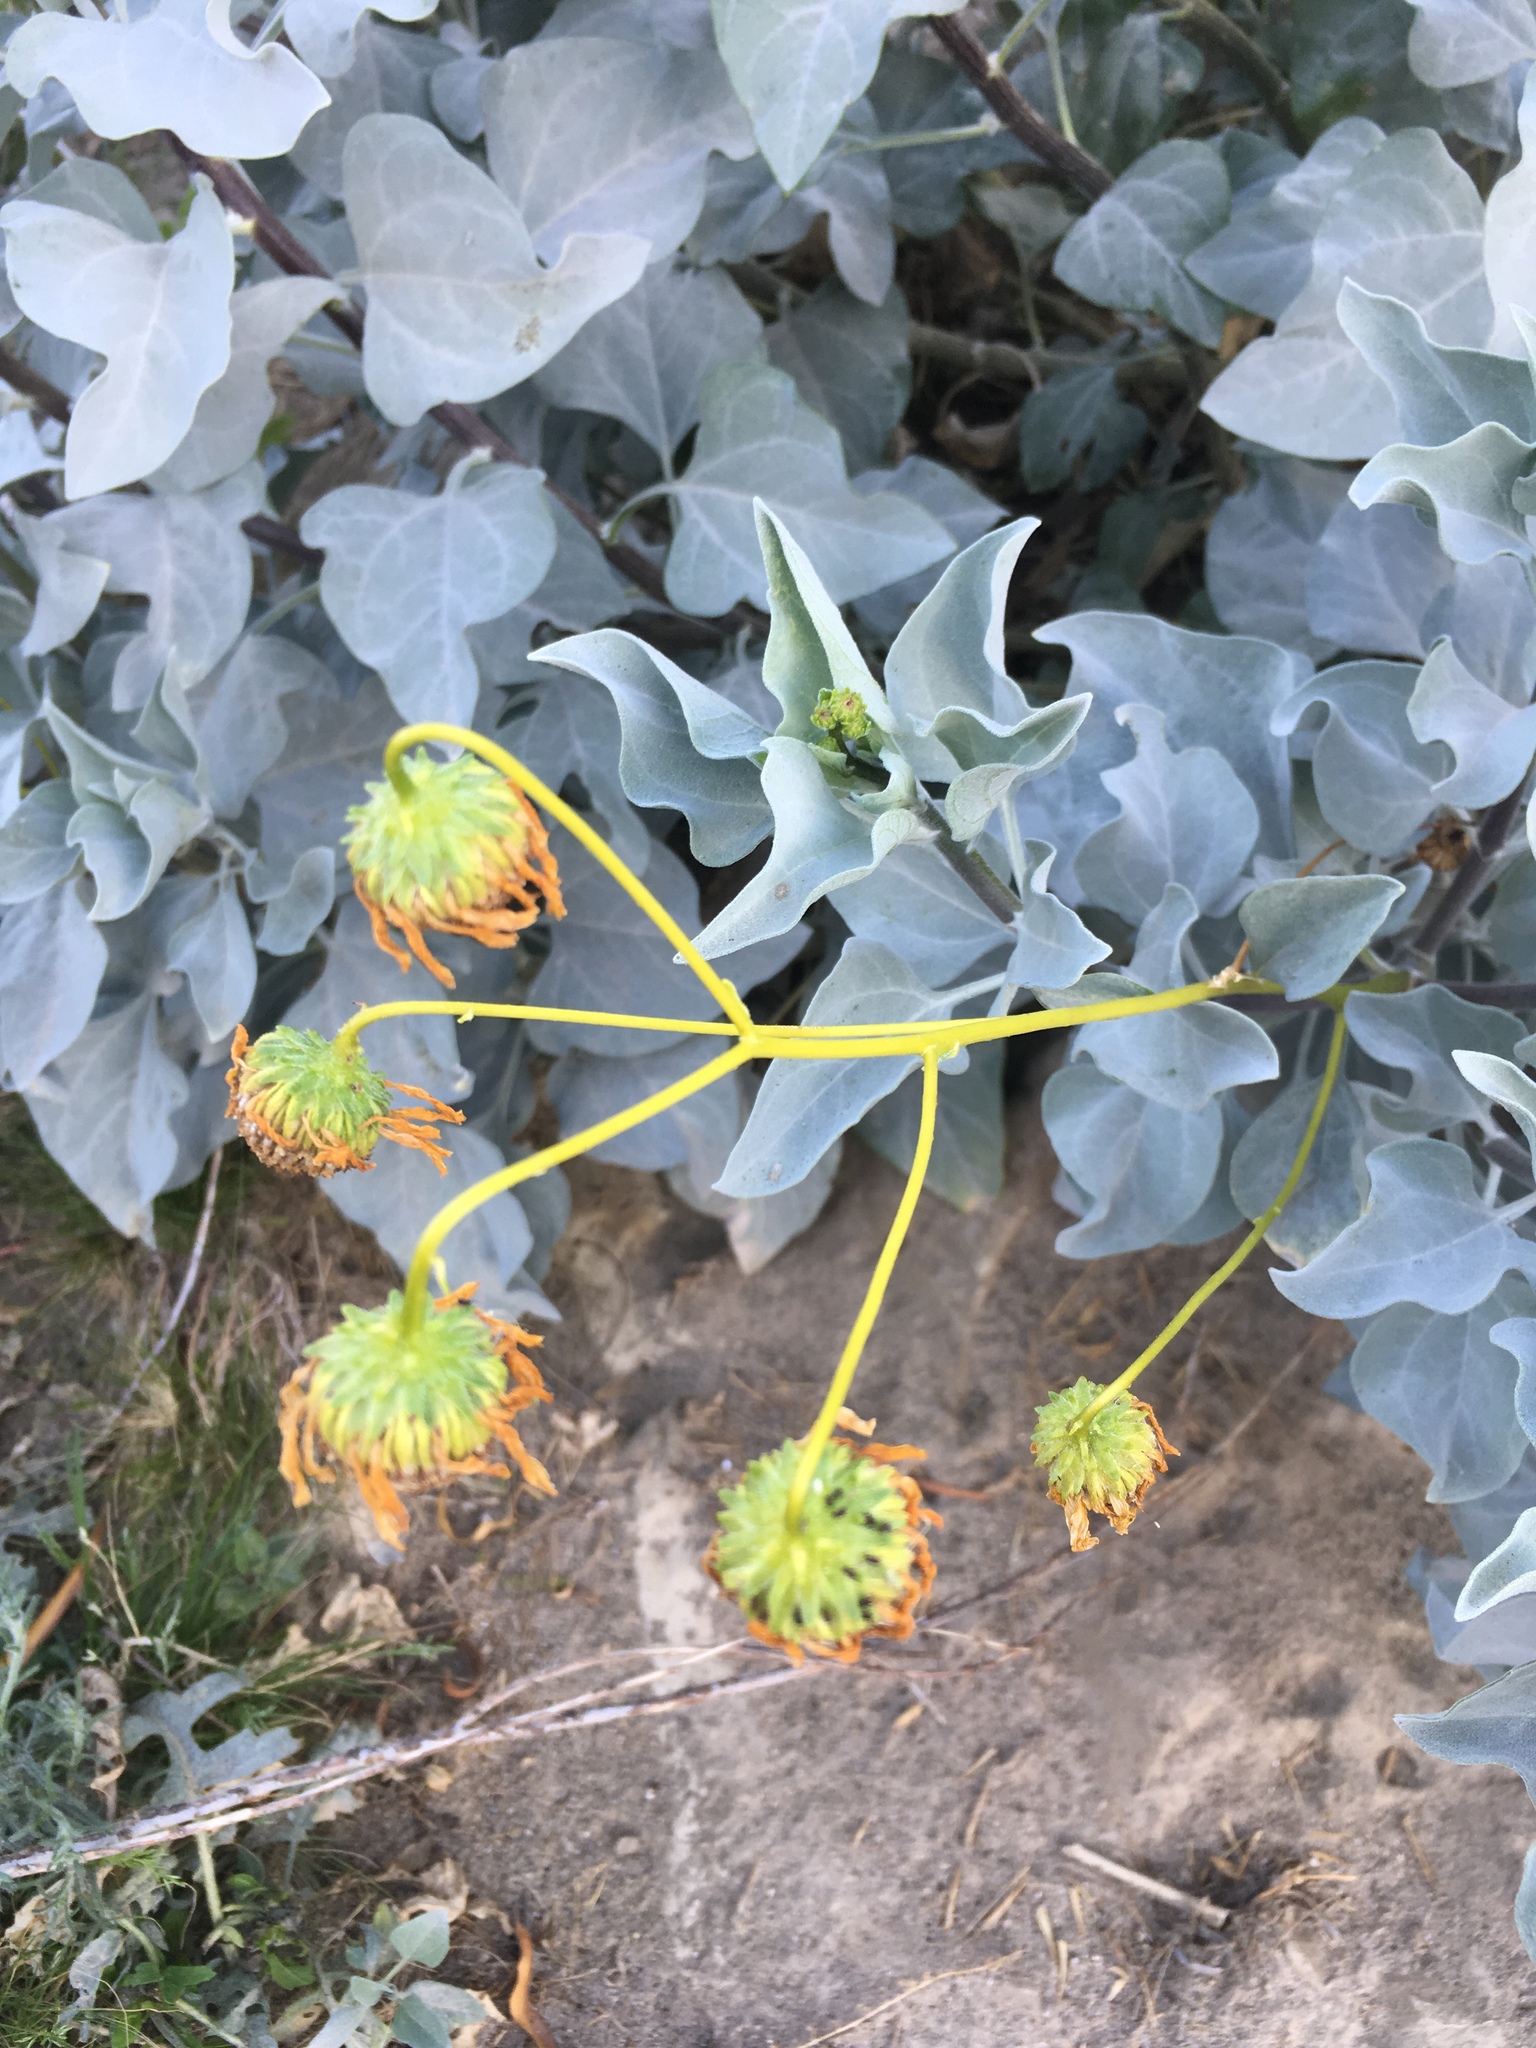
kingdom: Plantae
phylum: Tracheophyta
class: Magnoliopsida
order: Asterales
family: Asteraceae
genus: Encelia
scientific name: Encelia farinosa
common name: Brittlebush
